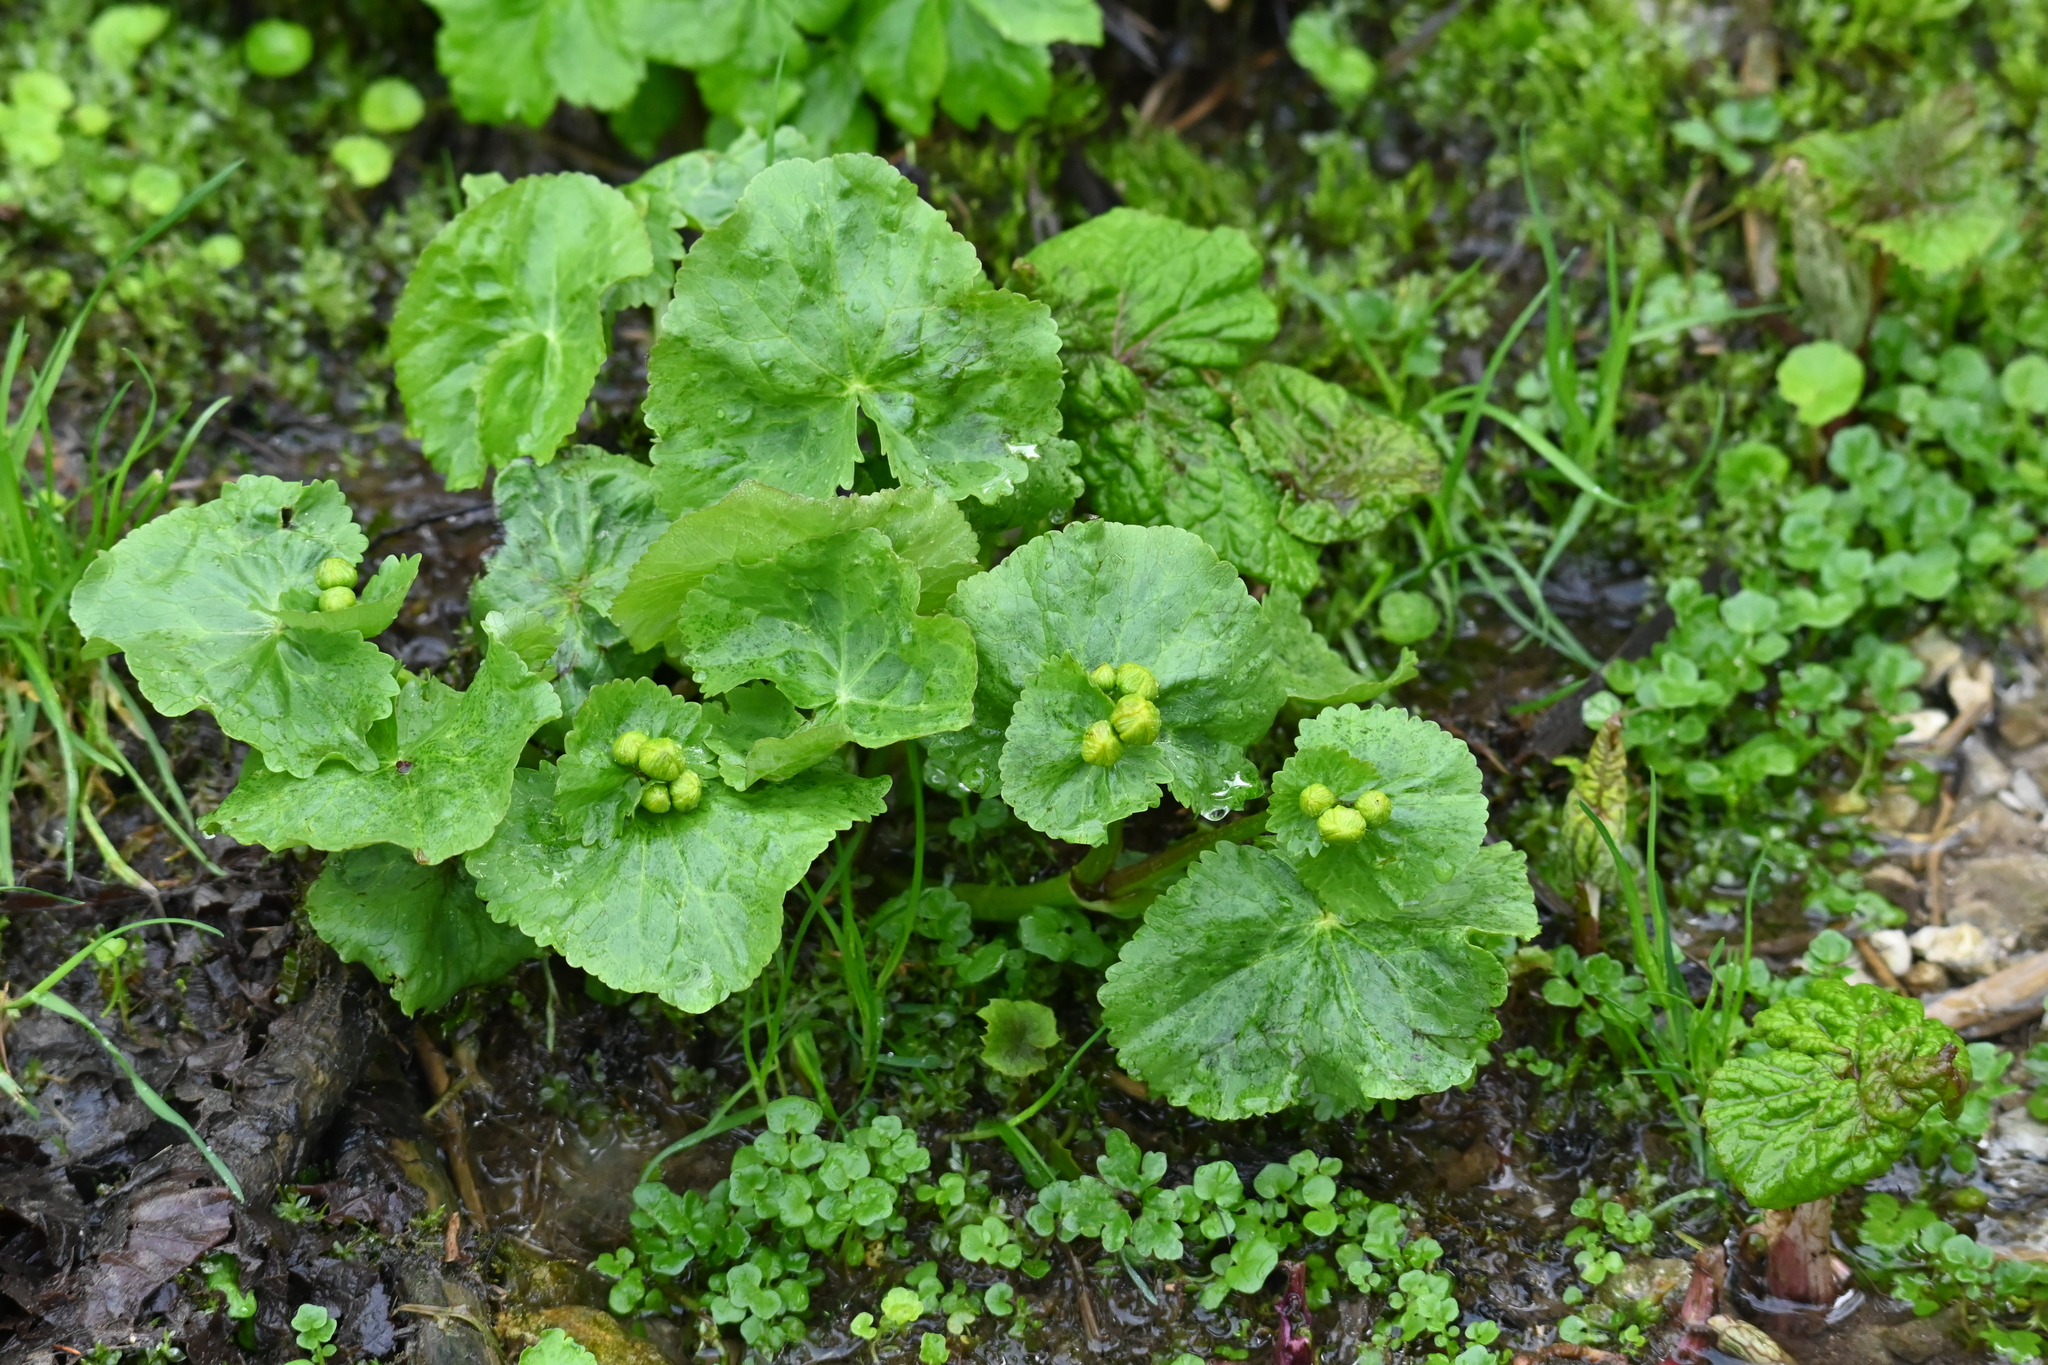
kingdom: Plantae
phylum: Tracheophyta
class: Magnoliopsida
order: Ranunculales
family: Ranunculaceae
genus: Caltha
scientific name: Caltha palustris
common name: Marsh marigold
